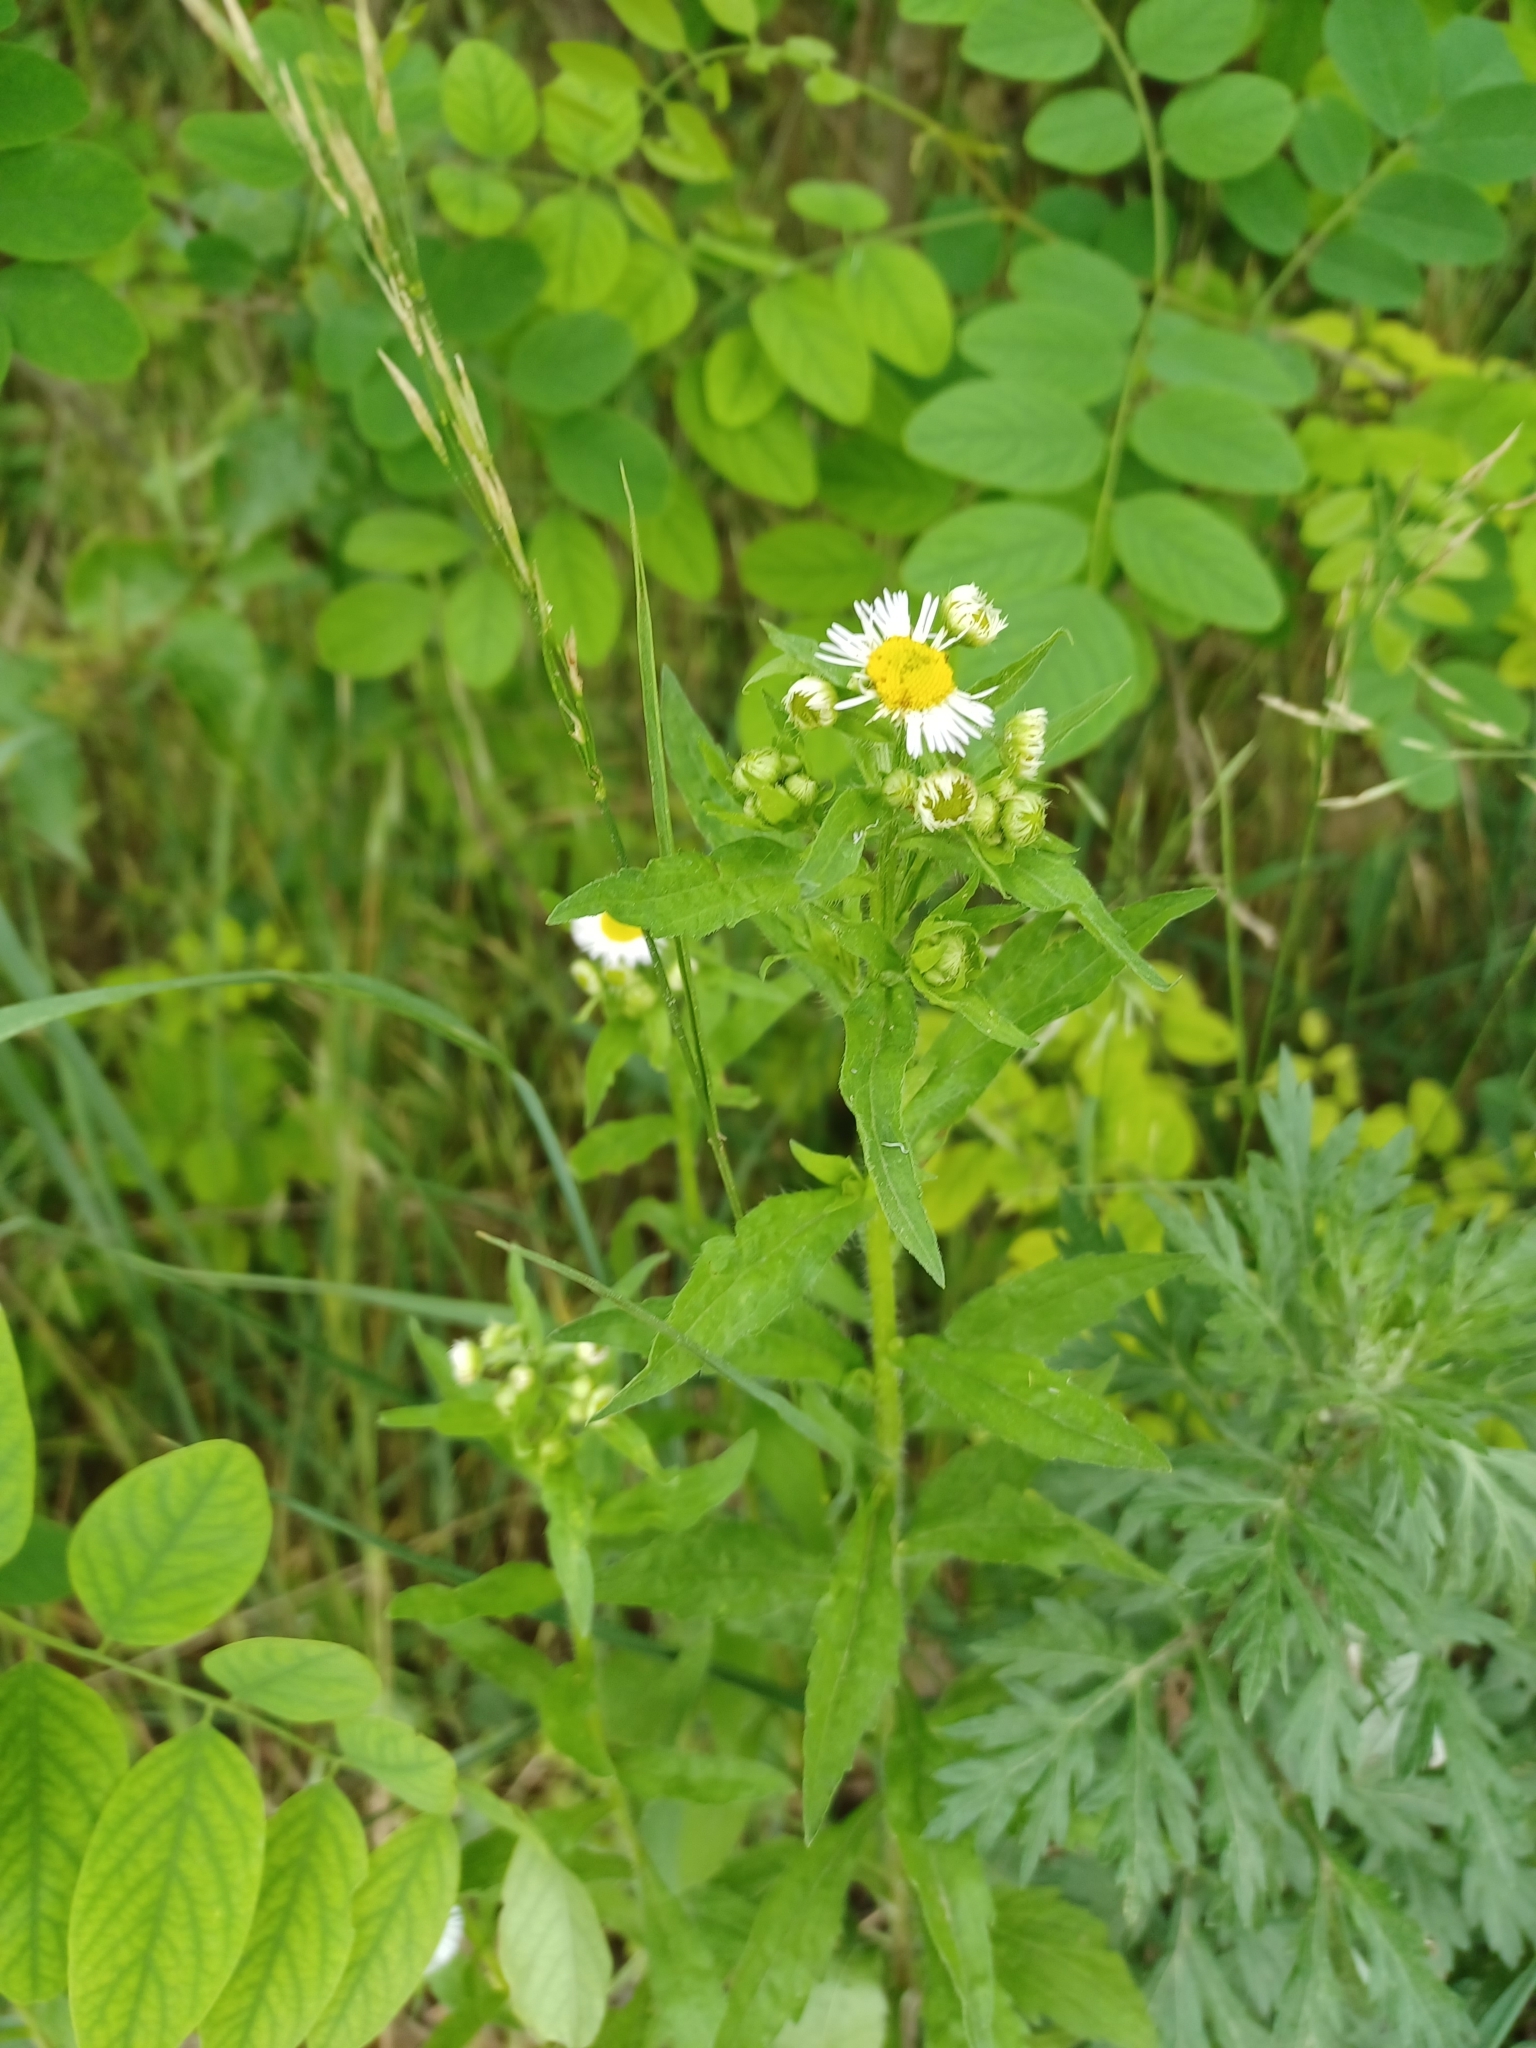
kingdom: Plantae
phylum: Tracheophyta
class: Magnoliopsida
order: Asterales
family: Asteraceae
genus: Erigeron
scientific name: Erigeron annuus
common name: Tall fleabane
